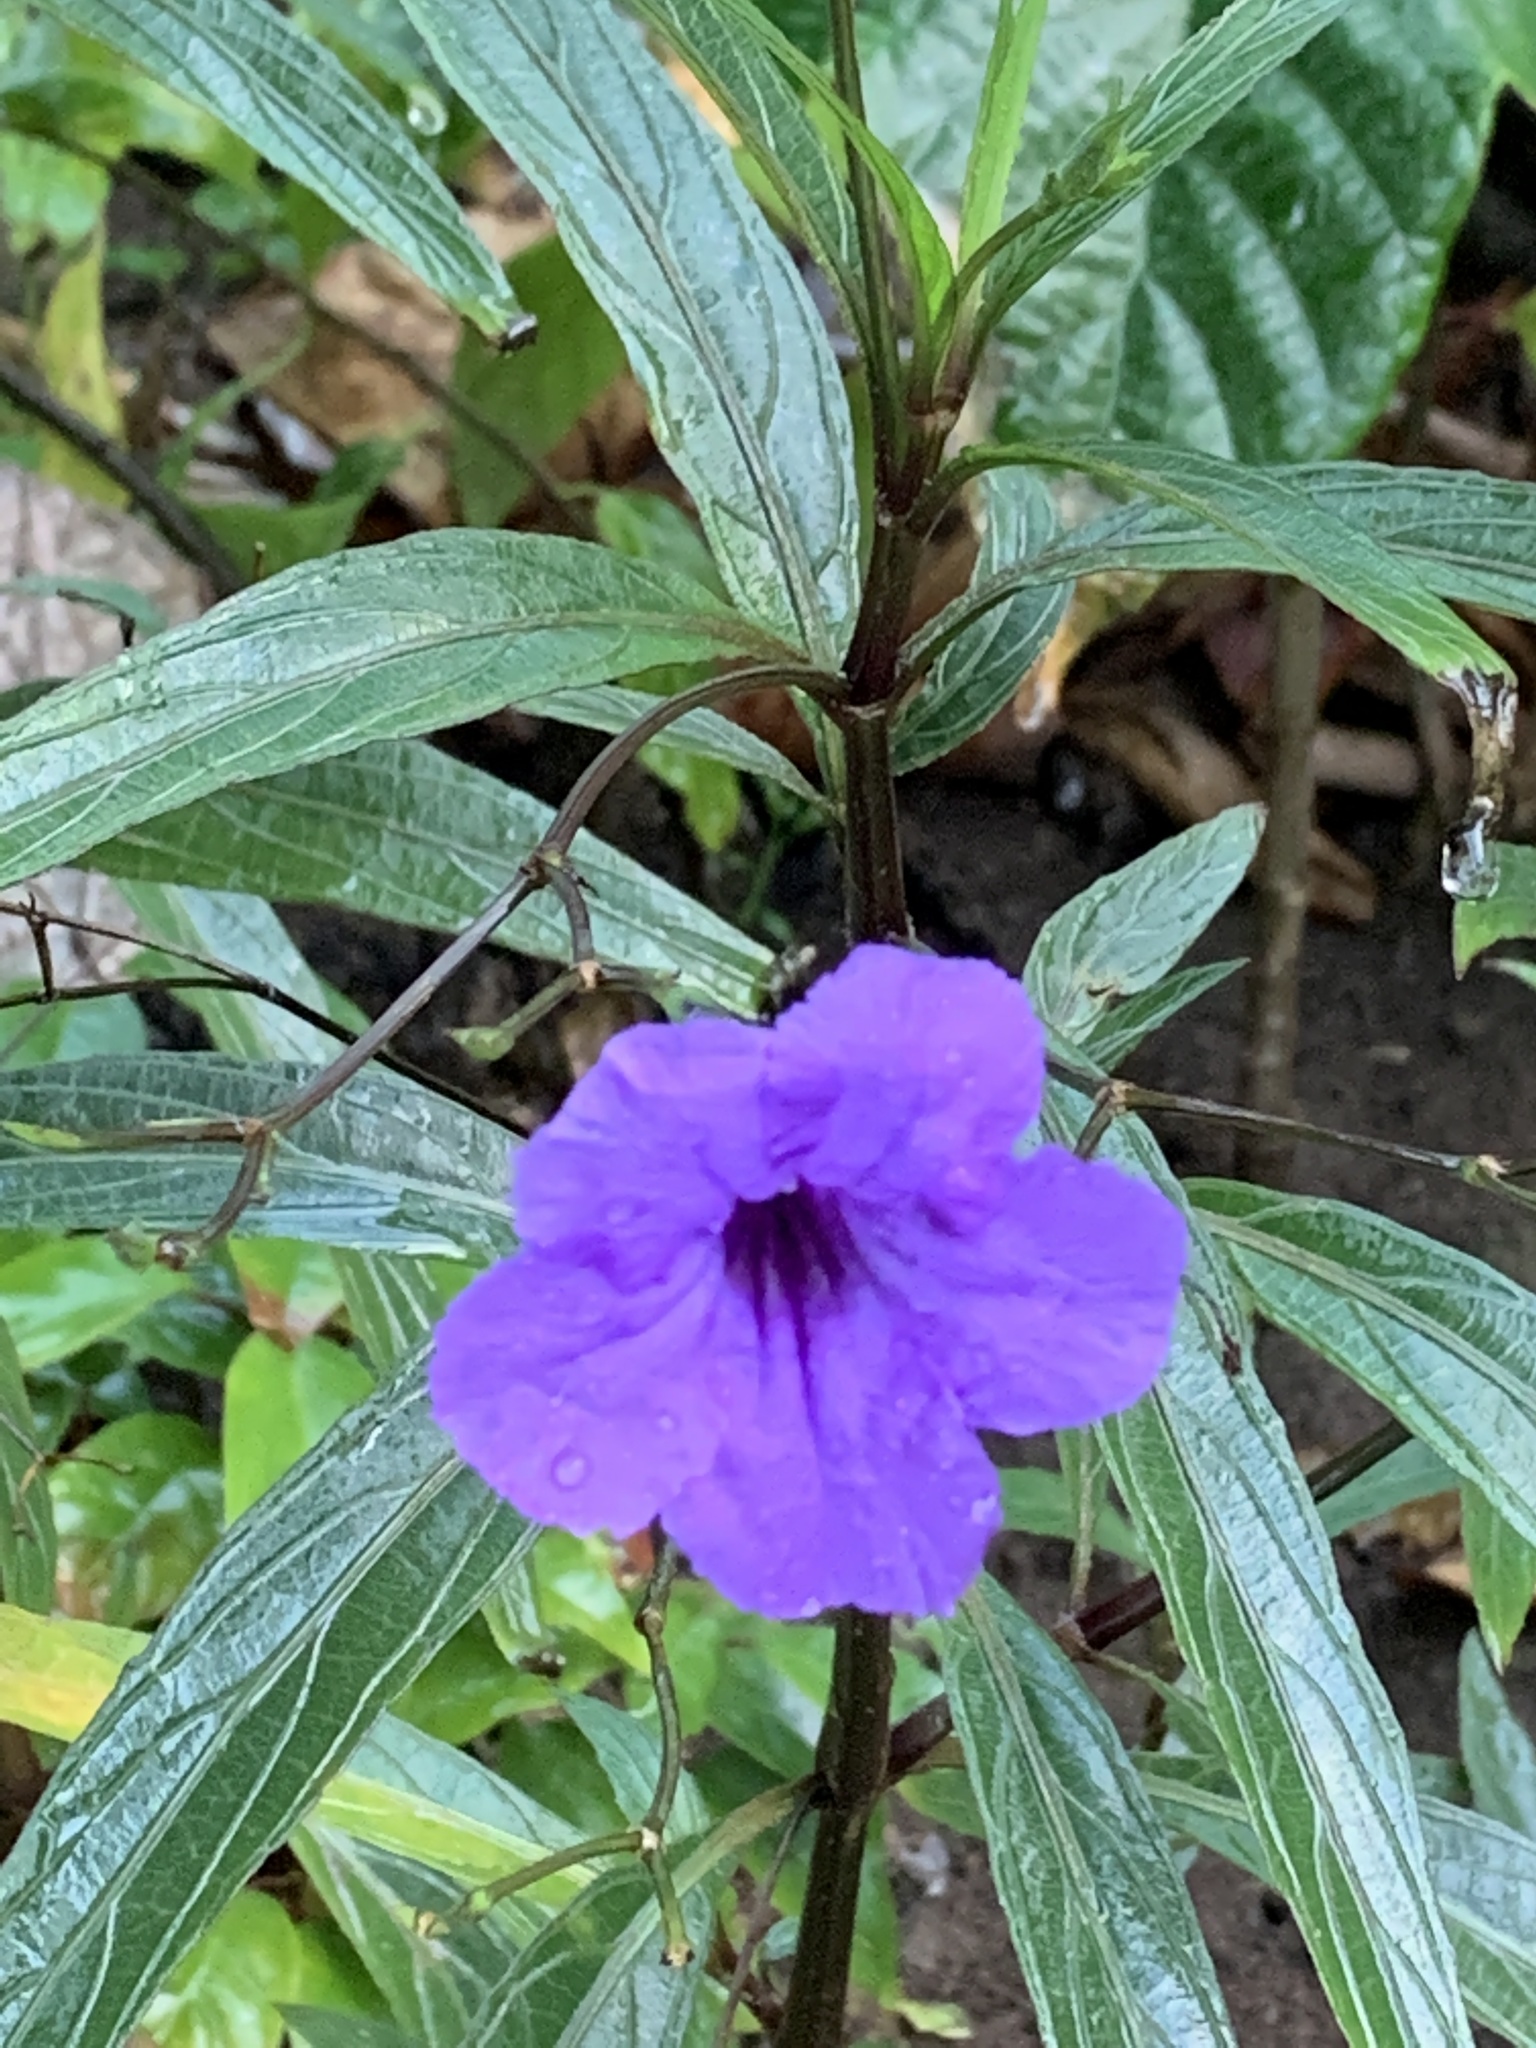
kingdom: Plantae
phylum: Tracheophyta
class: Magnoliopsida
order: Lamiales
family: Acanthaceae
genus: Ruellia
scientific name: Ruellia simplex
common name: Softseed wild petunia
